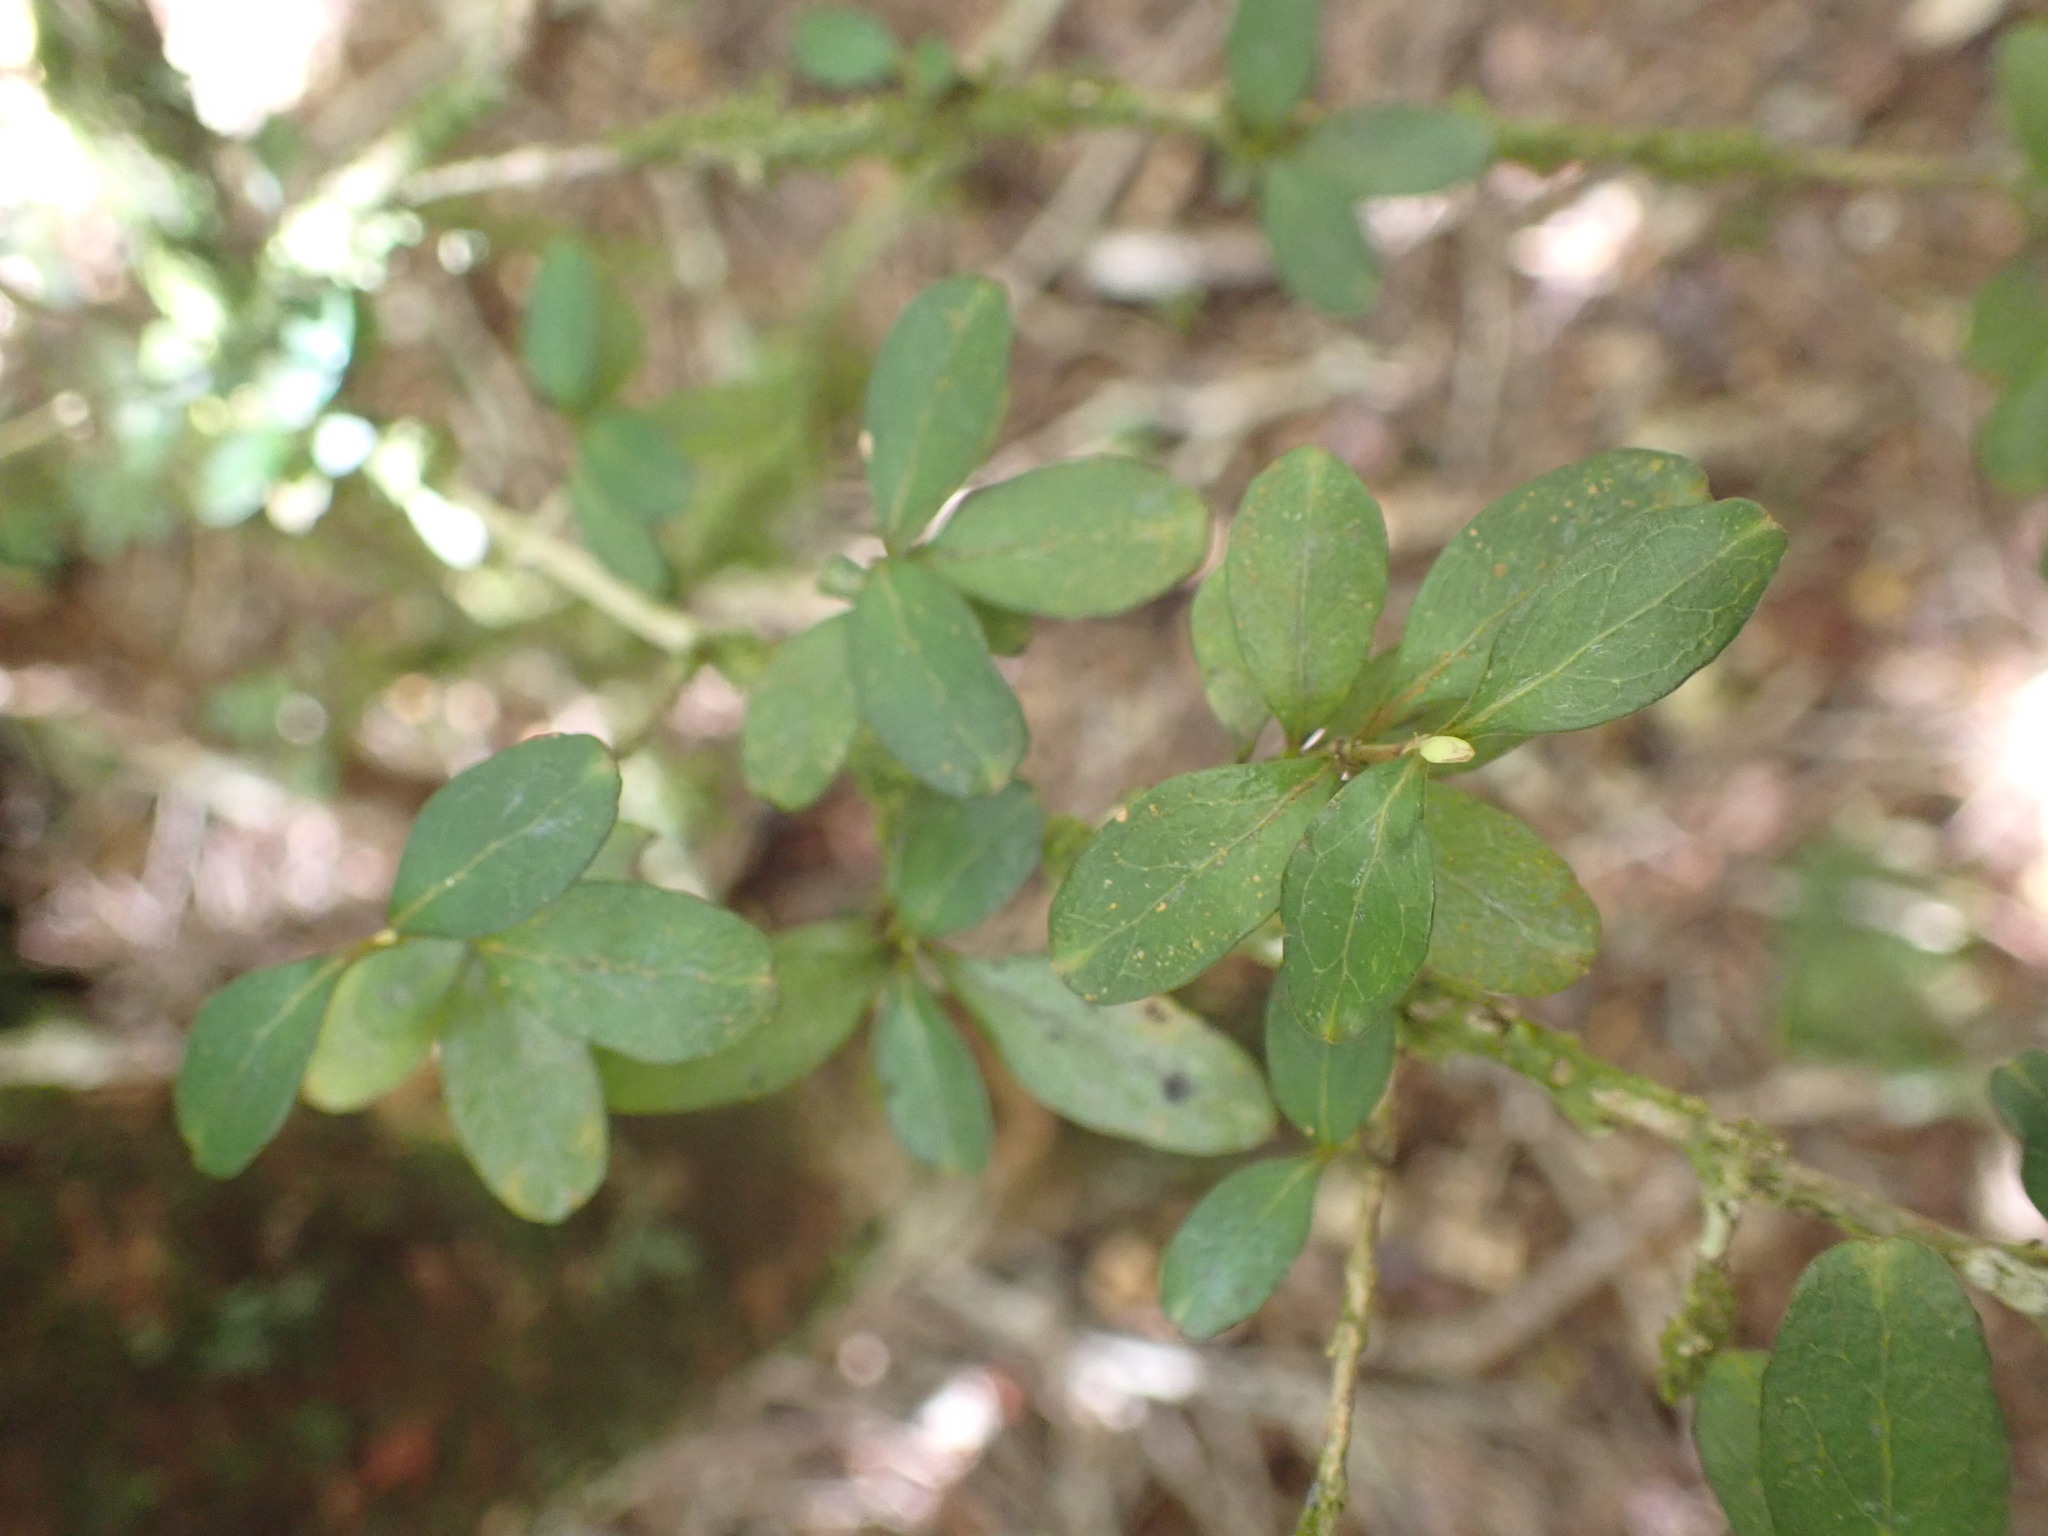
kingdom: Plantae
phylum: Tracheophyta
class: Magnoliopsida
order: Gentianales
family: Rubiaceae
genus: Coprosma
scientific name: Coprosma colensoi
